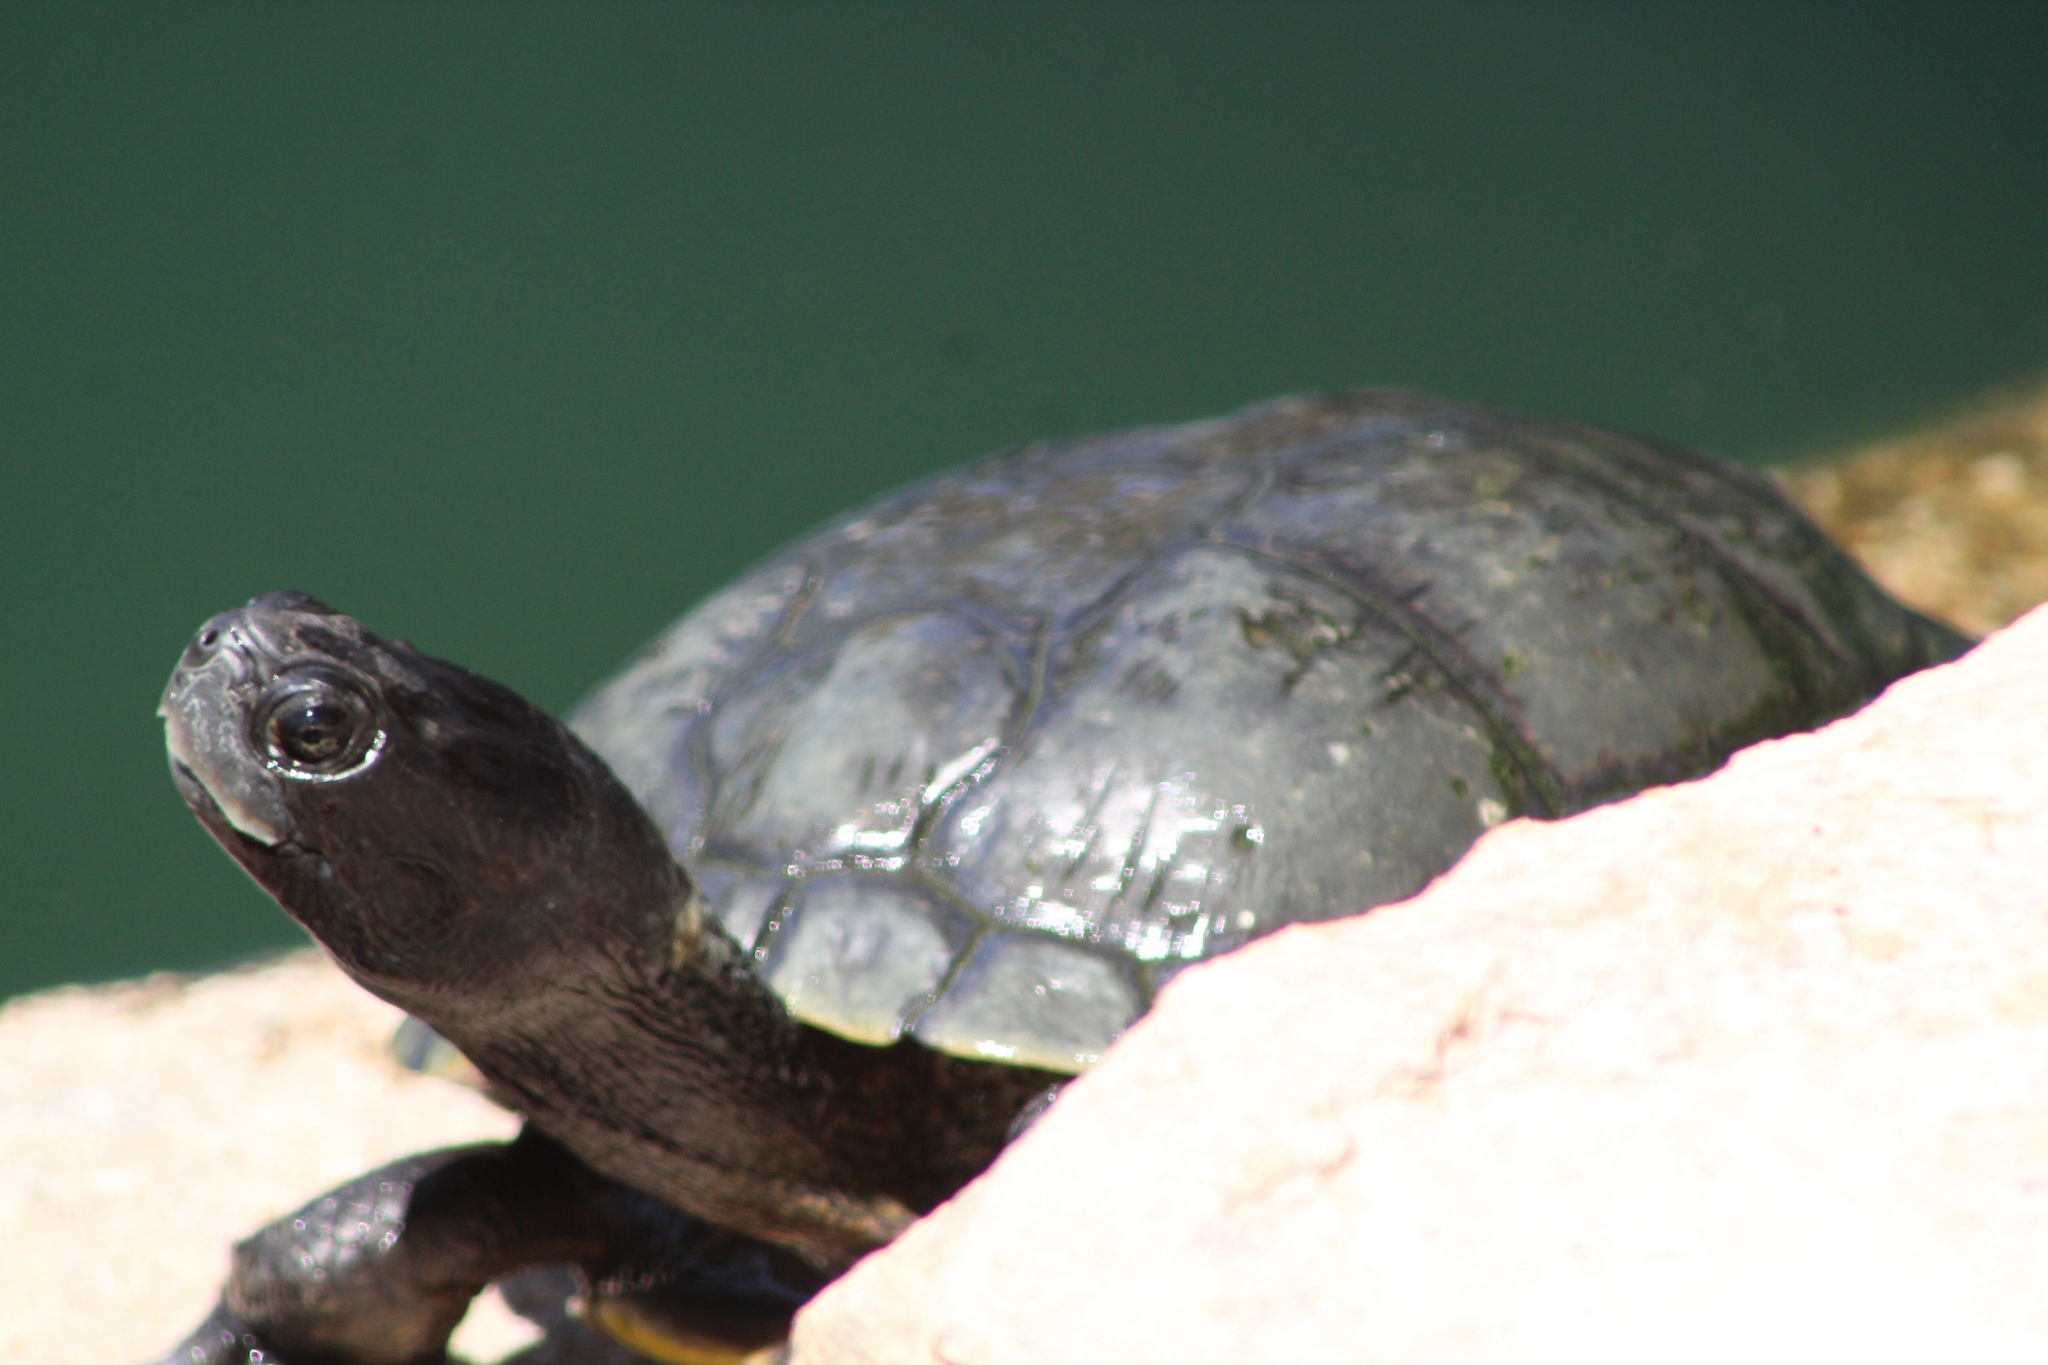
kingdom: Animalia
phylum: Chordata
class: Testudines
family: Emydidae
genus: Trachemys
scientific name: Trachemys scripta
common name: Slider
